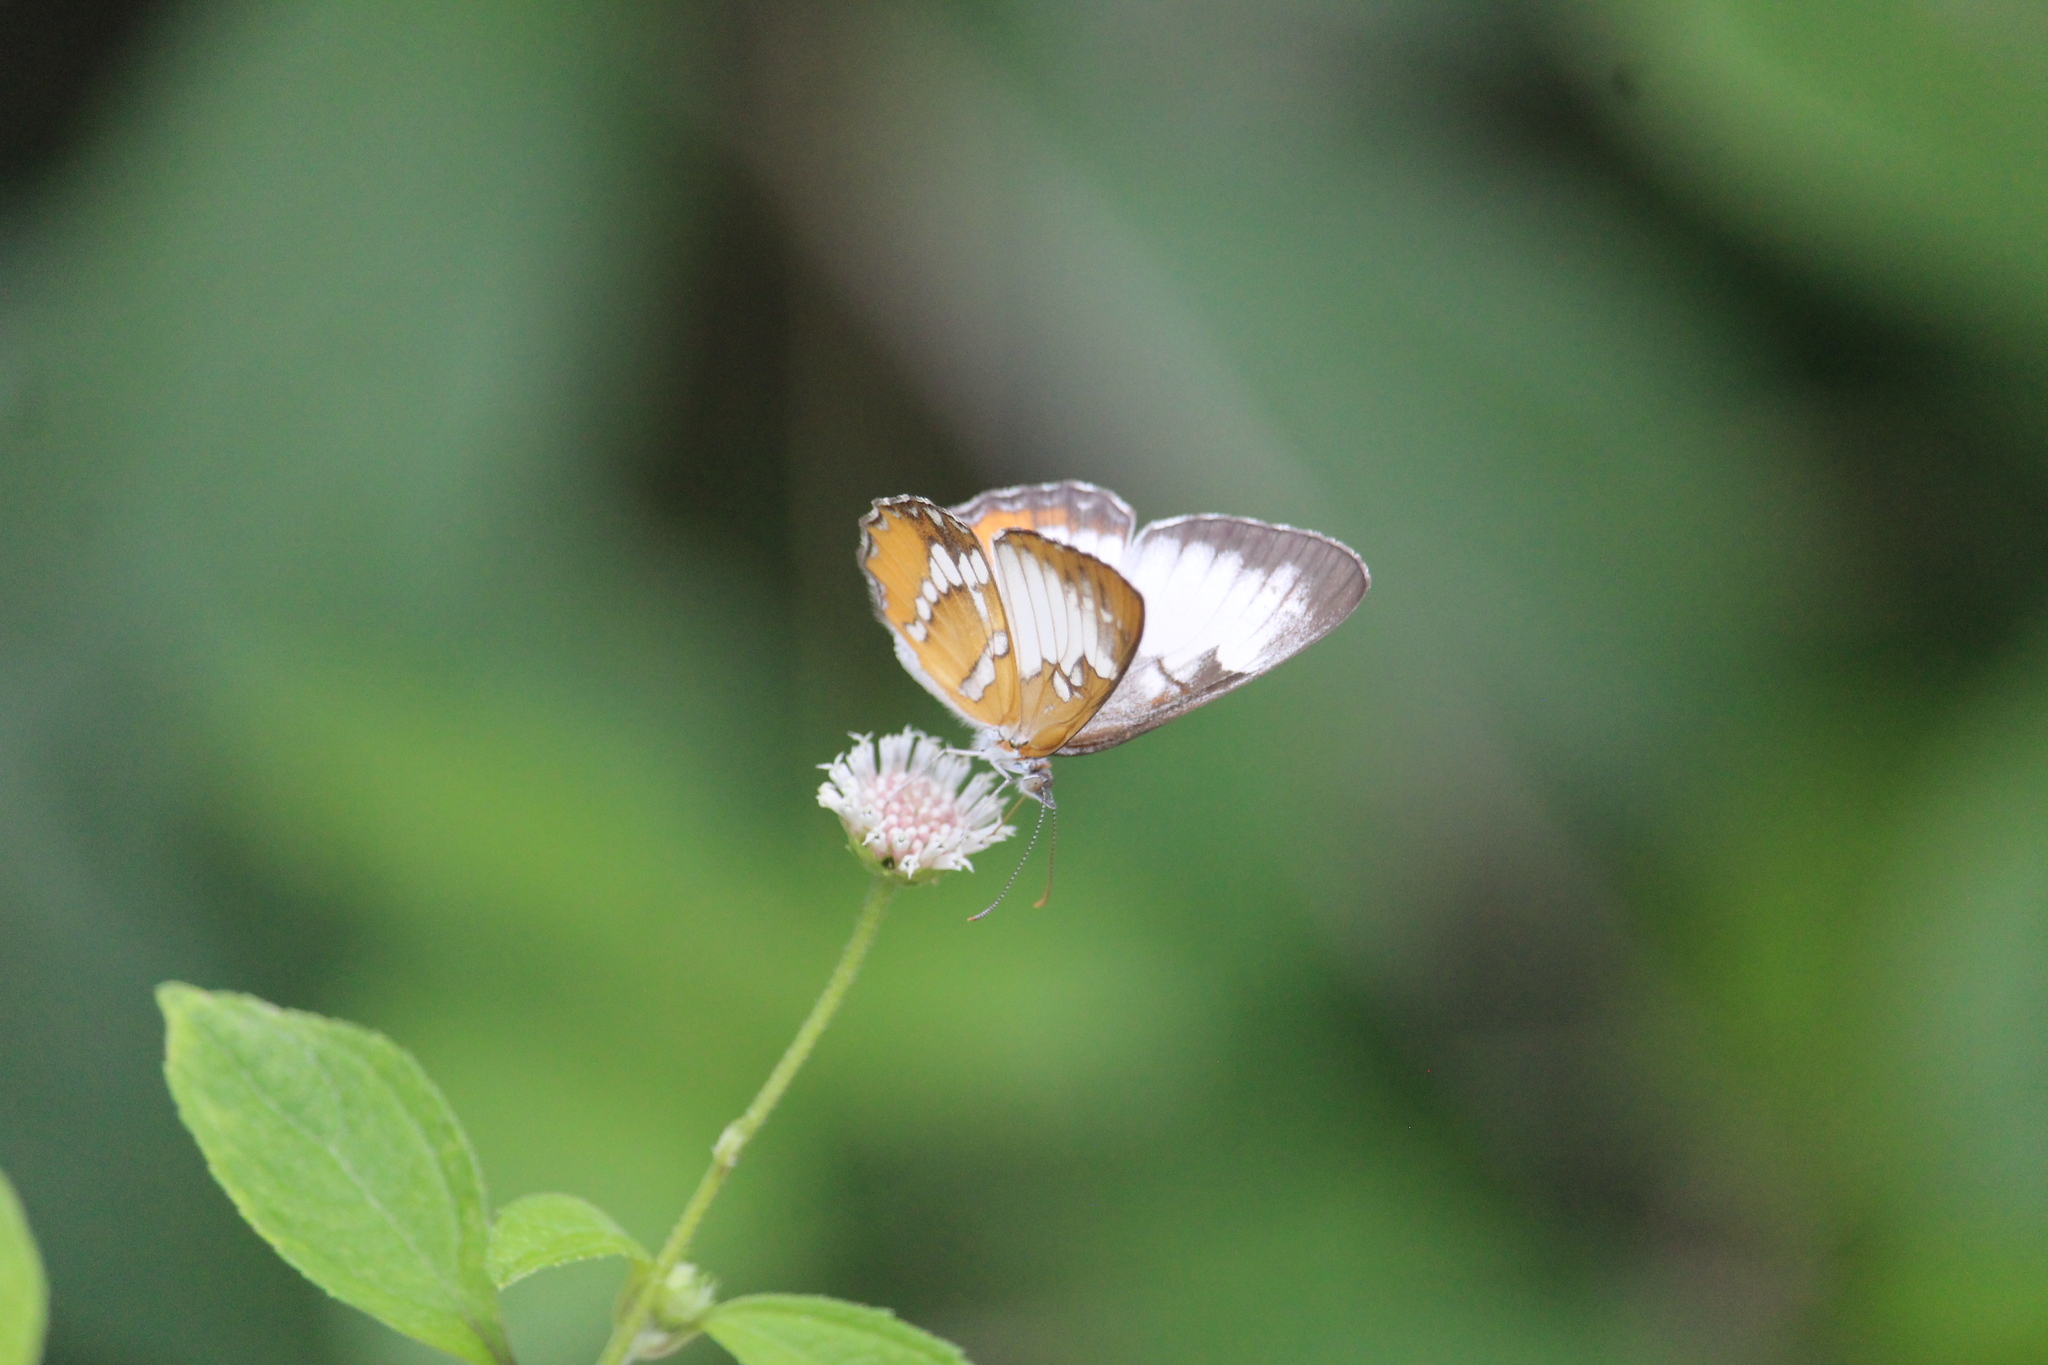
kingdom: Animalia
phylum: Arthropoda
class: Insecta
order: Lepidoptera
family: Nymphalidae
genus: Mestra
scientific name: Mestra amymone
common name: Common mestra
